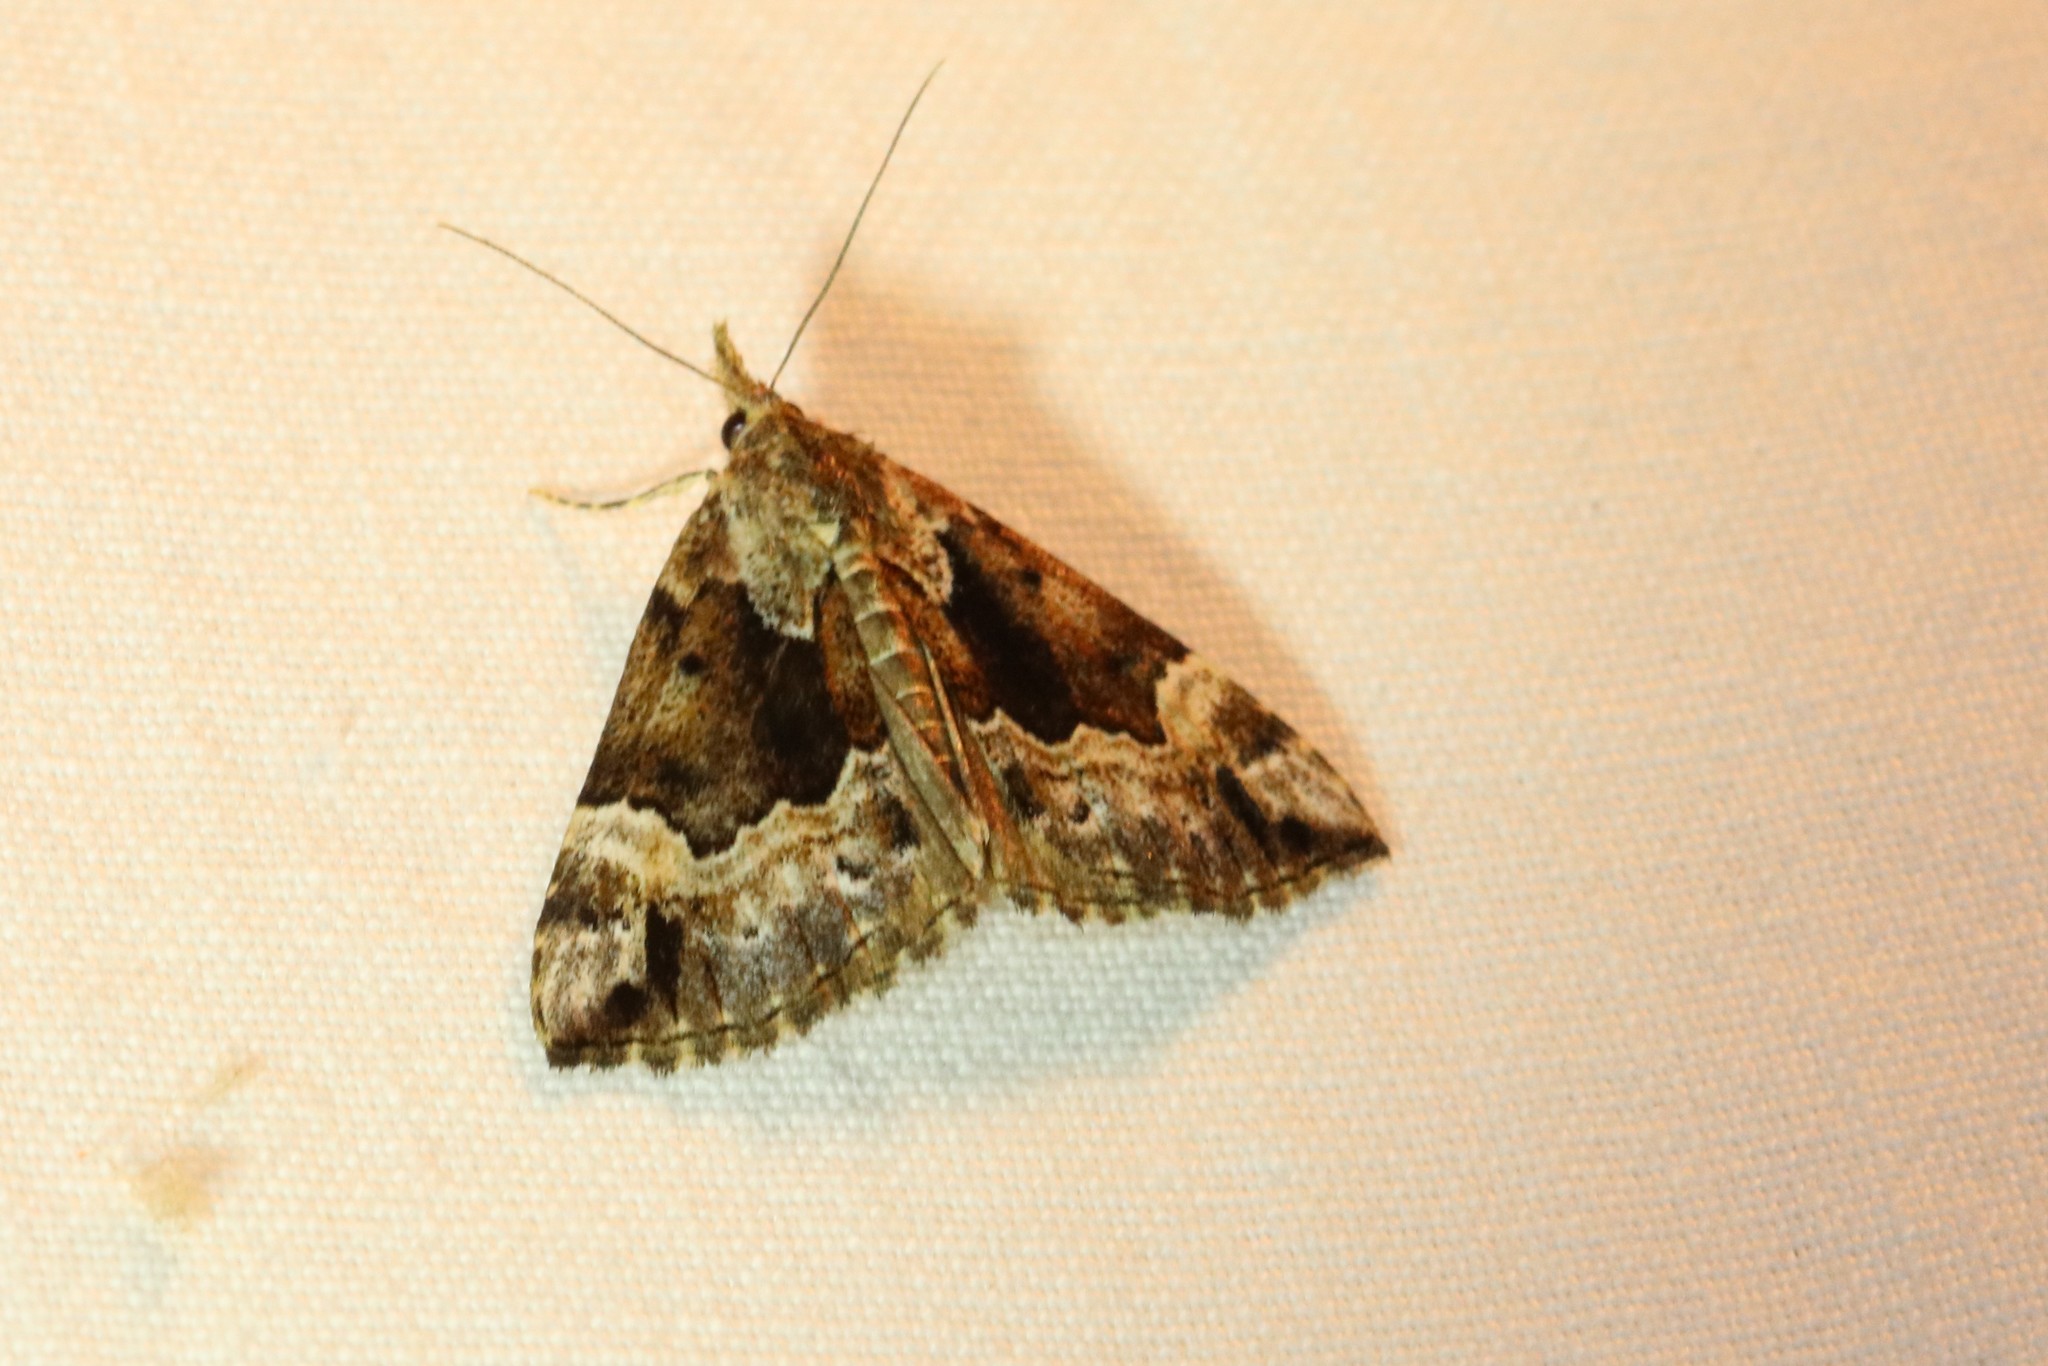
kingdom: Animalia
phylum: Arthropoda
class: Insecta
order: Lepidoptera
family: Erebidae
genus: Hypena
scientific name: Hypena palparia
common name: Mottled bomolocha moth
